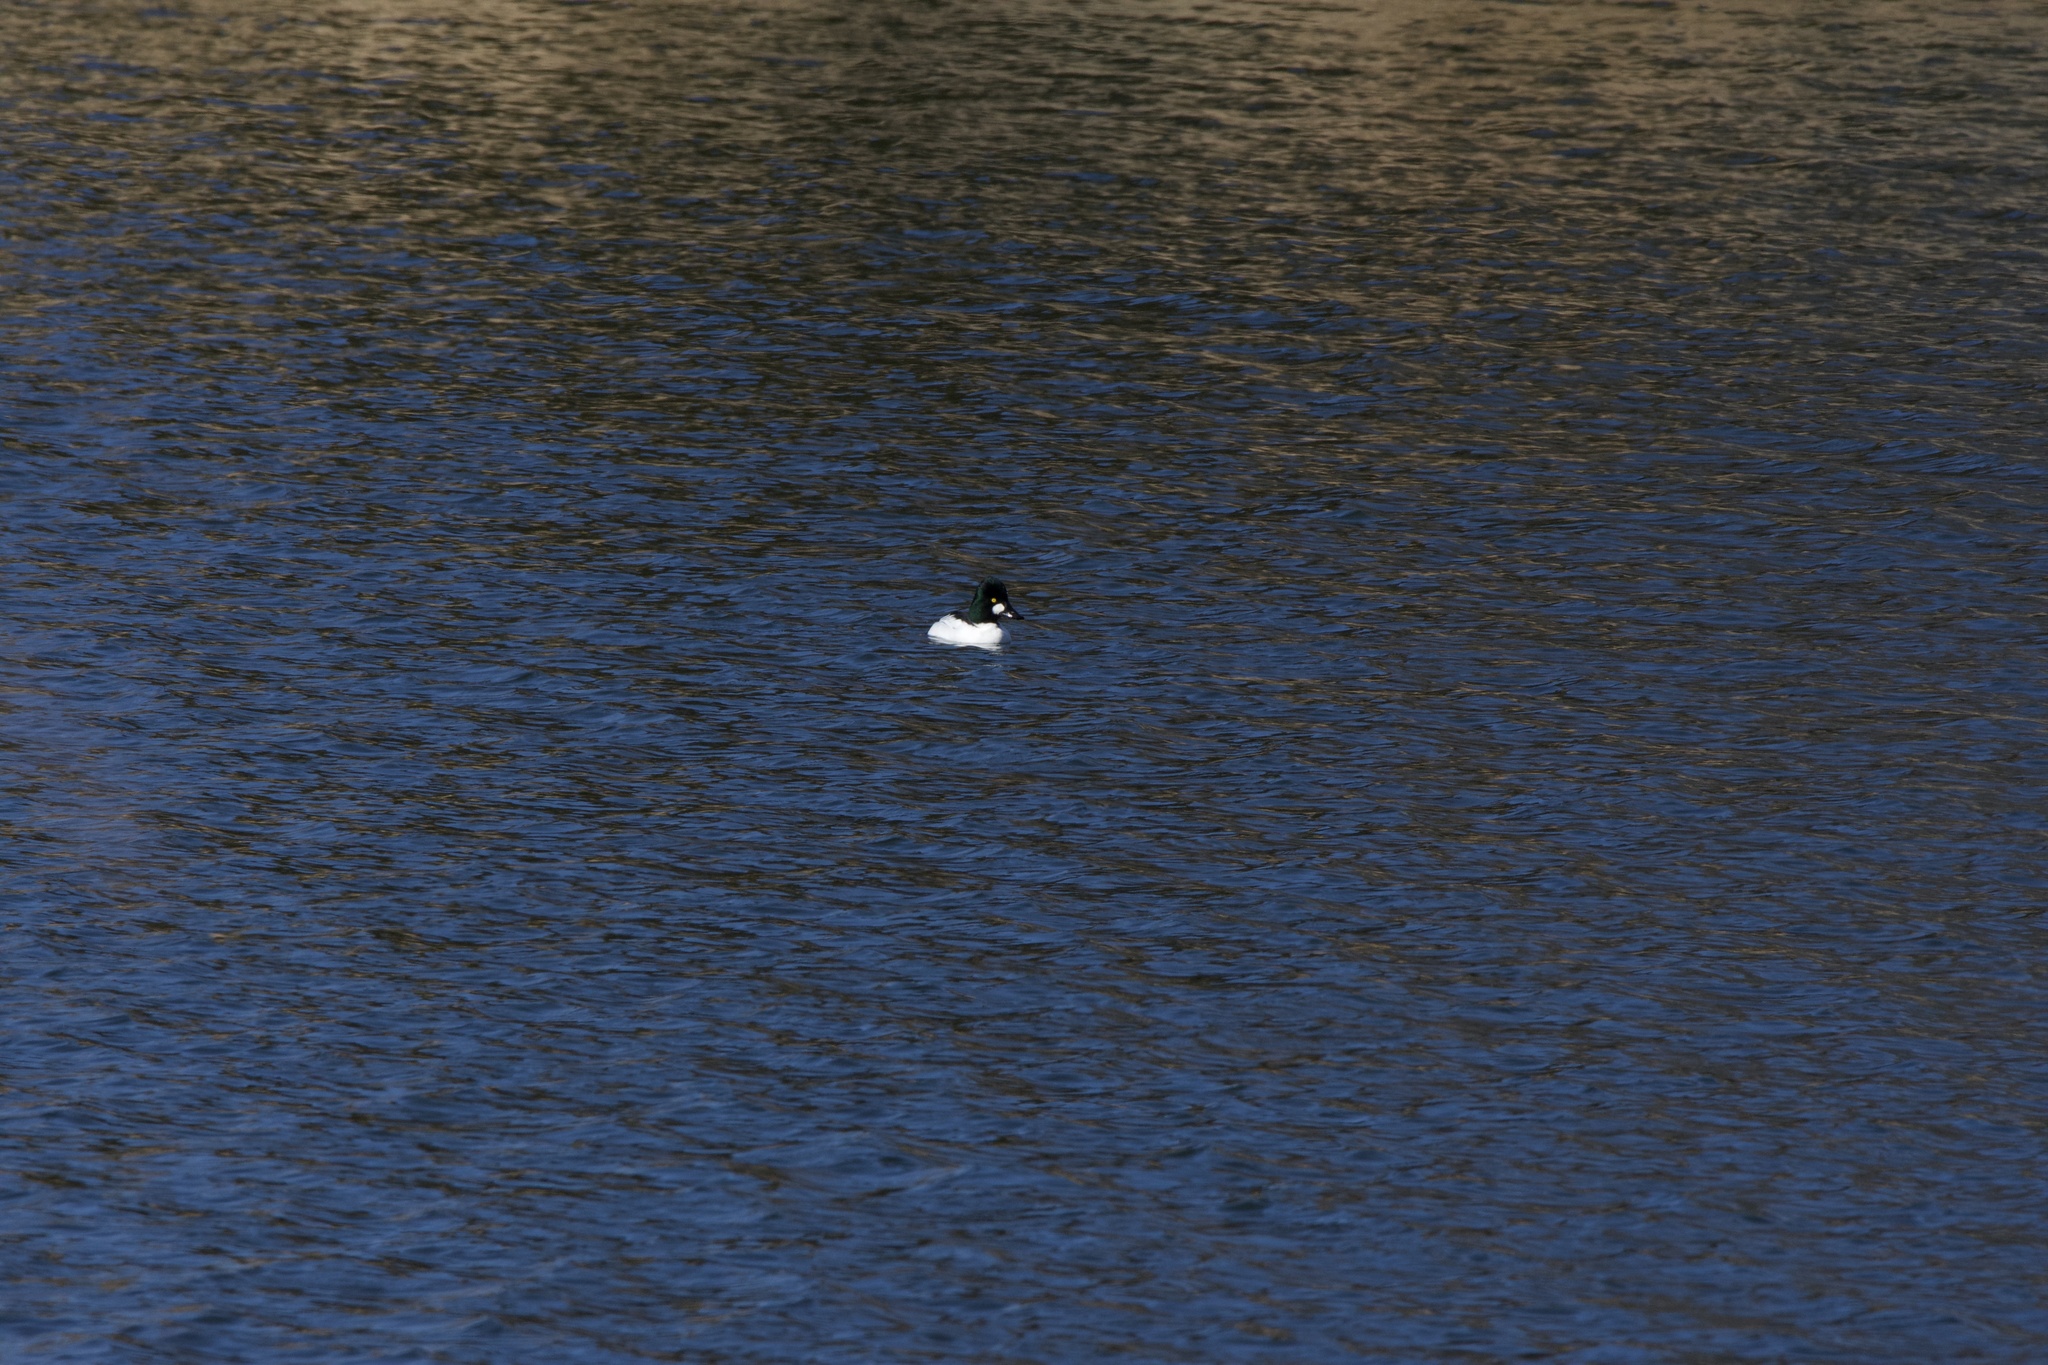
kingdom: Animalia
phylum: Chordata
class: Aves
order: Anseriformes
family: Anatidae
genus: Bucephala
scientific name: Bucephala clangula
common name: Common goldeneye
